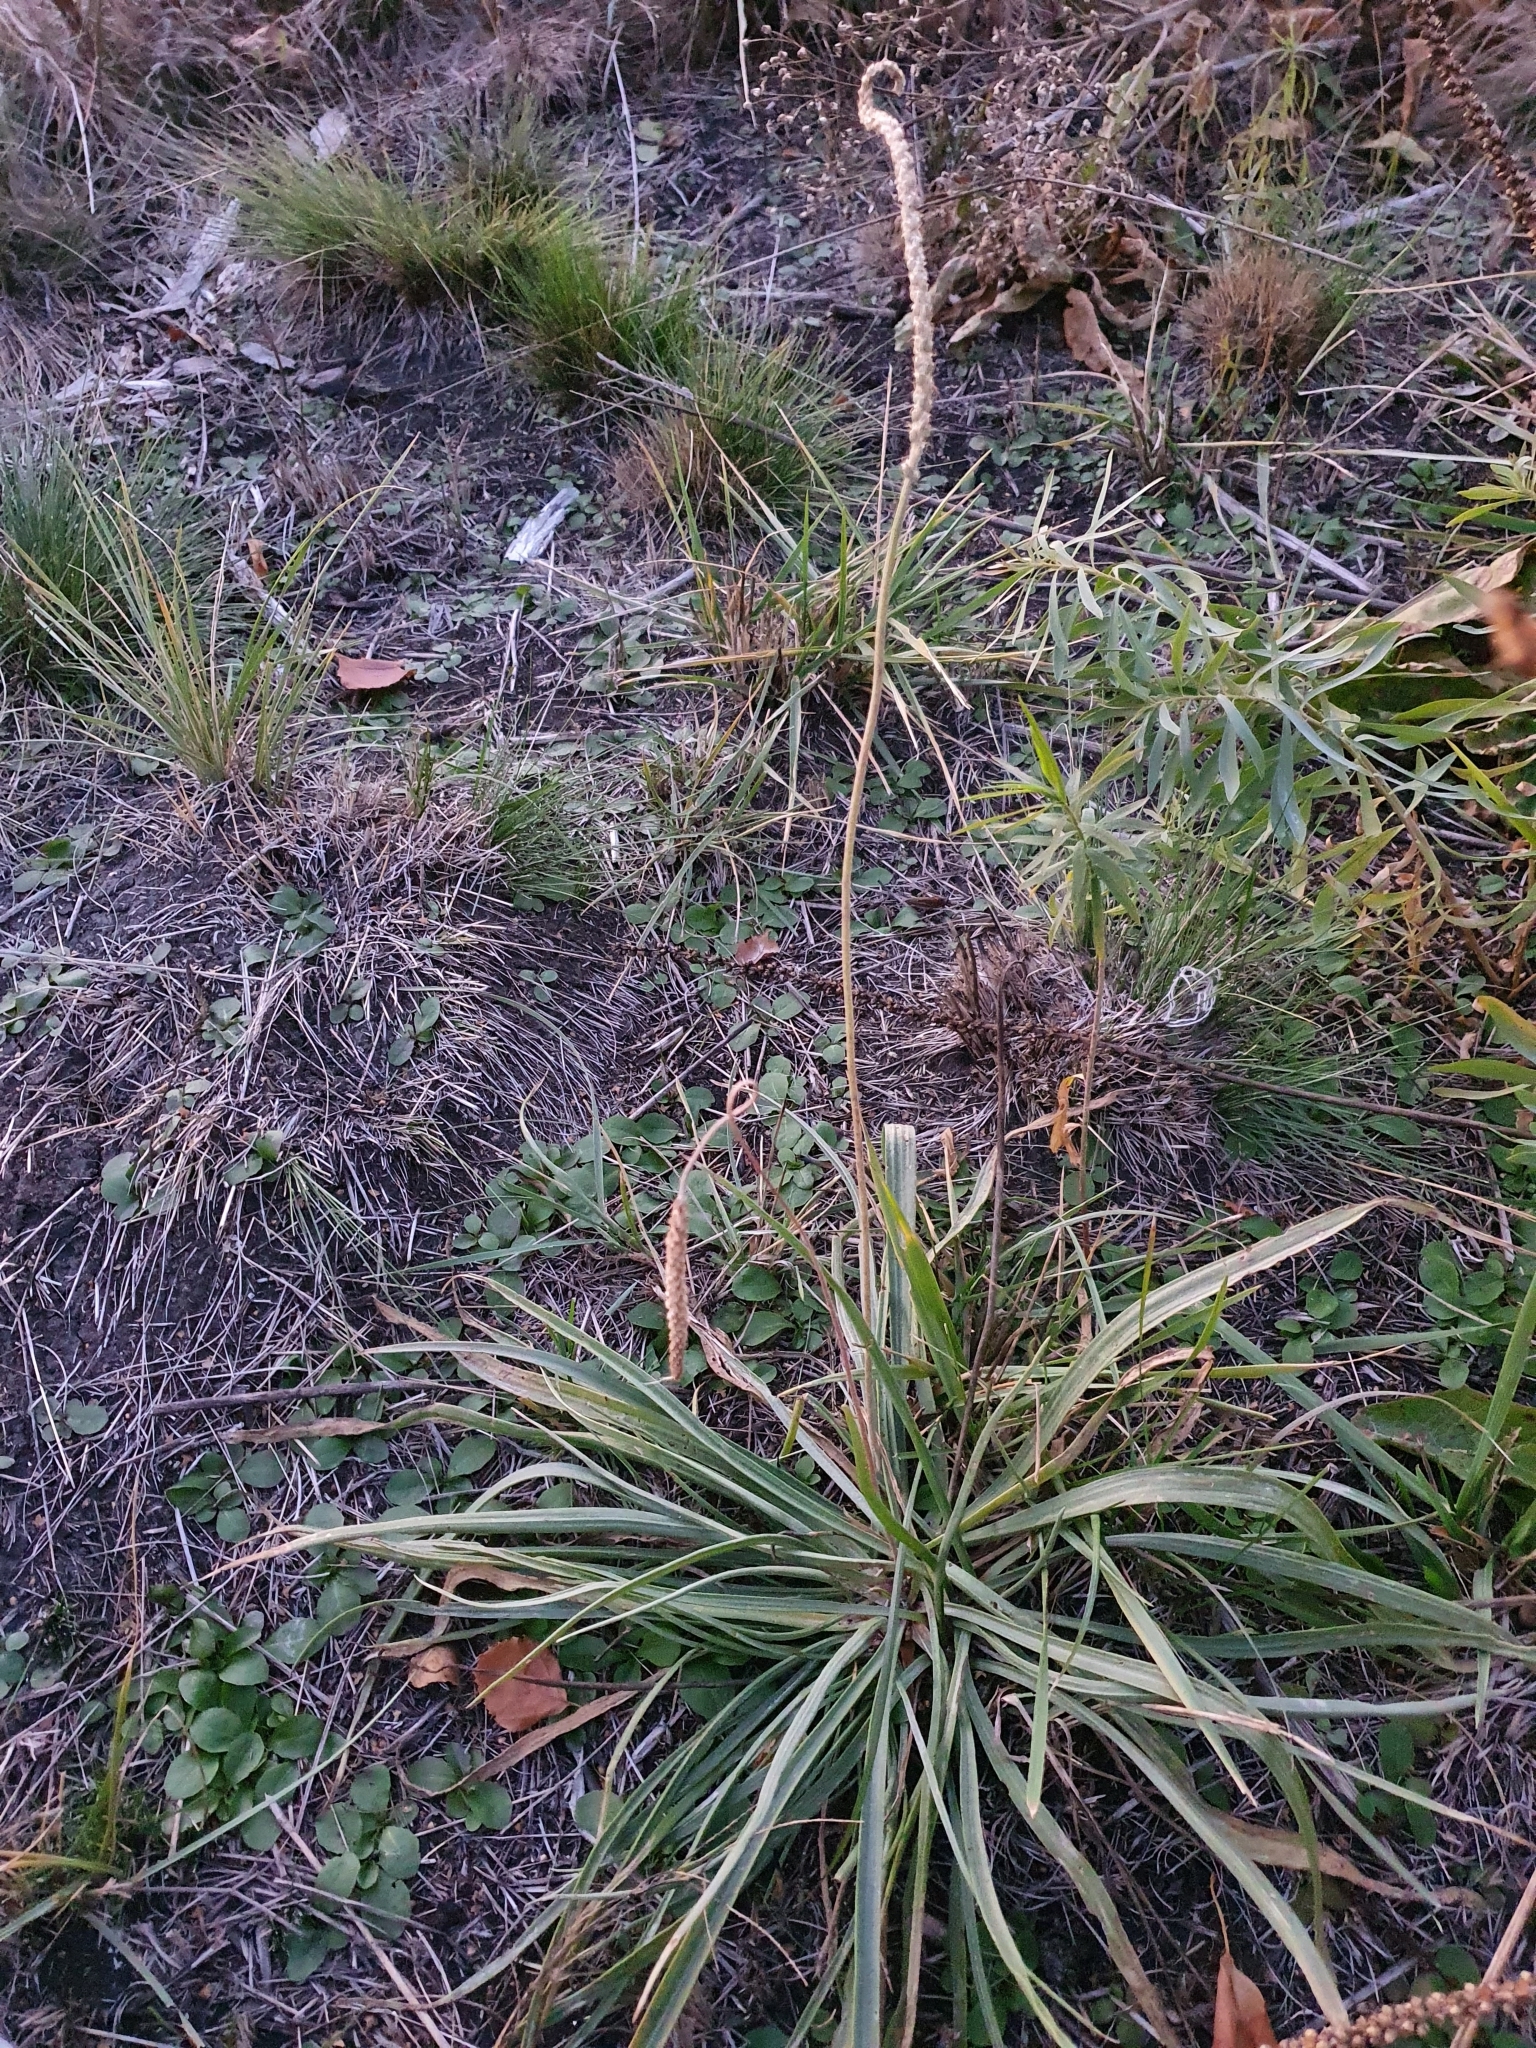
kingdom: Plantae
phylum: Tracheophyta
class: Magnoliopsida
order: Lamiales
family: Plantaginaceae
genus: Plantago
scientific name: Plantago salsa
